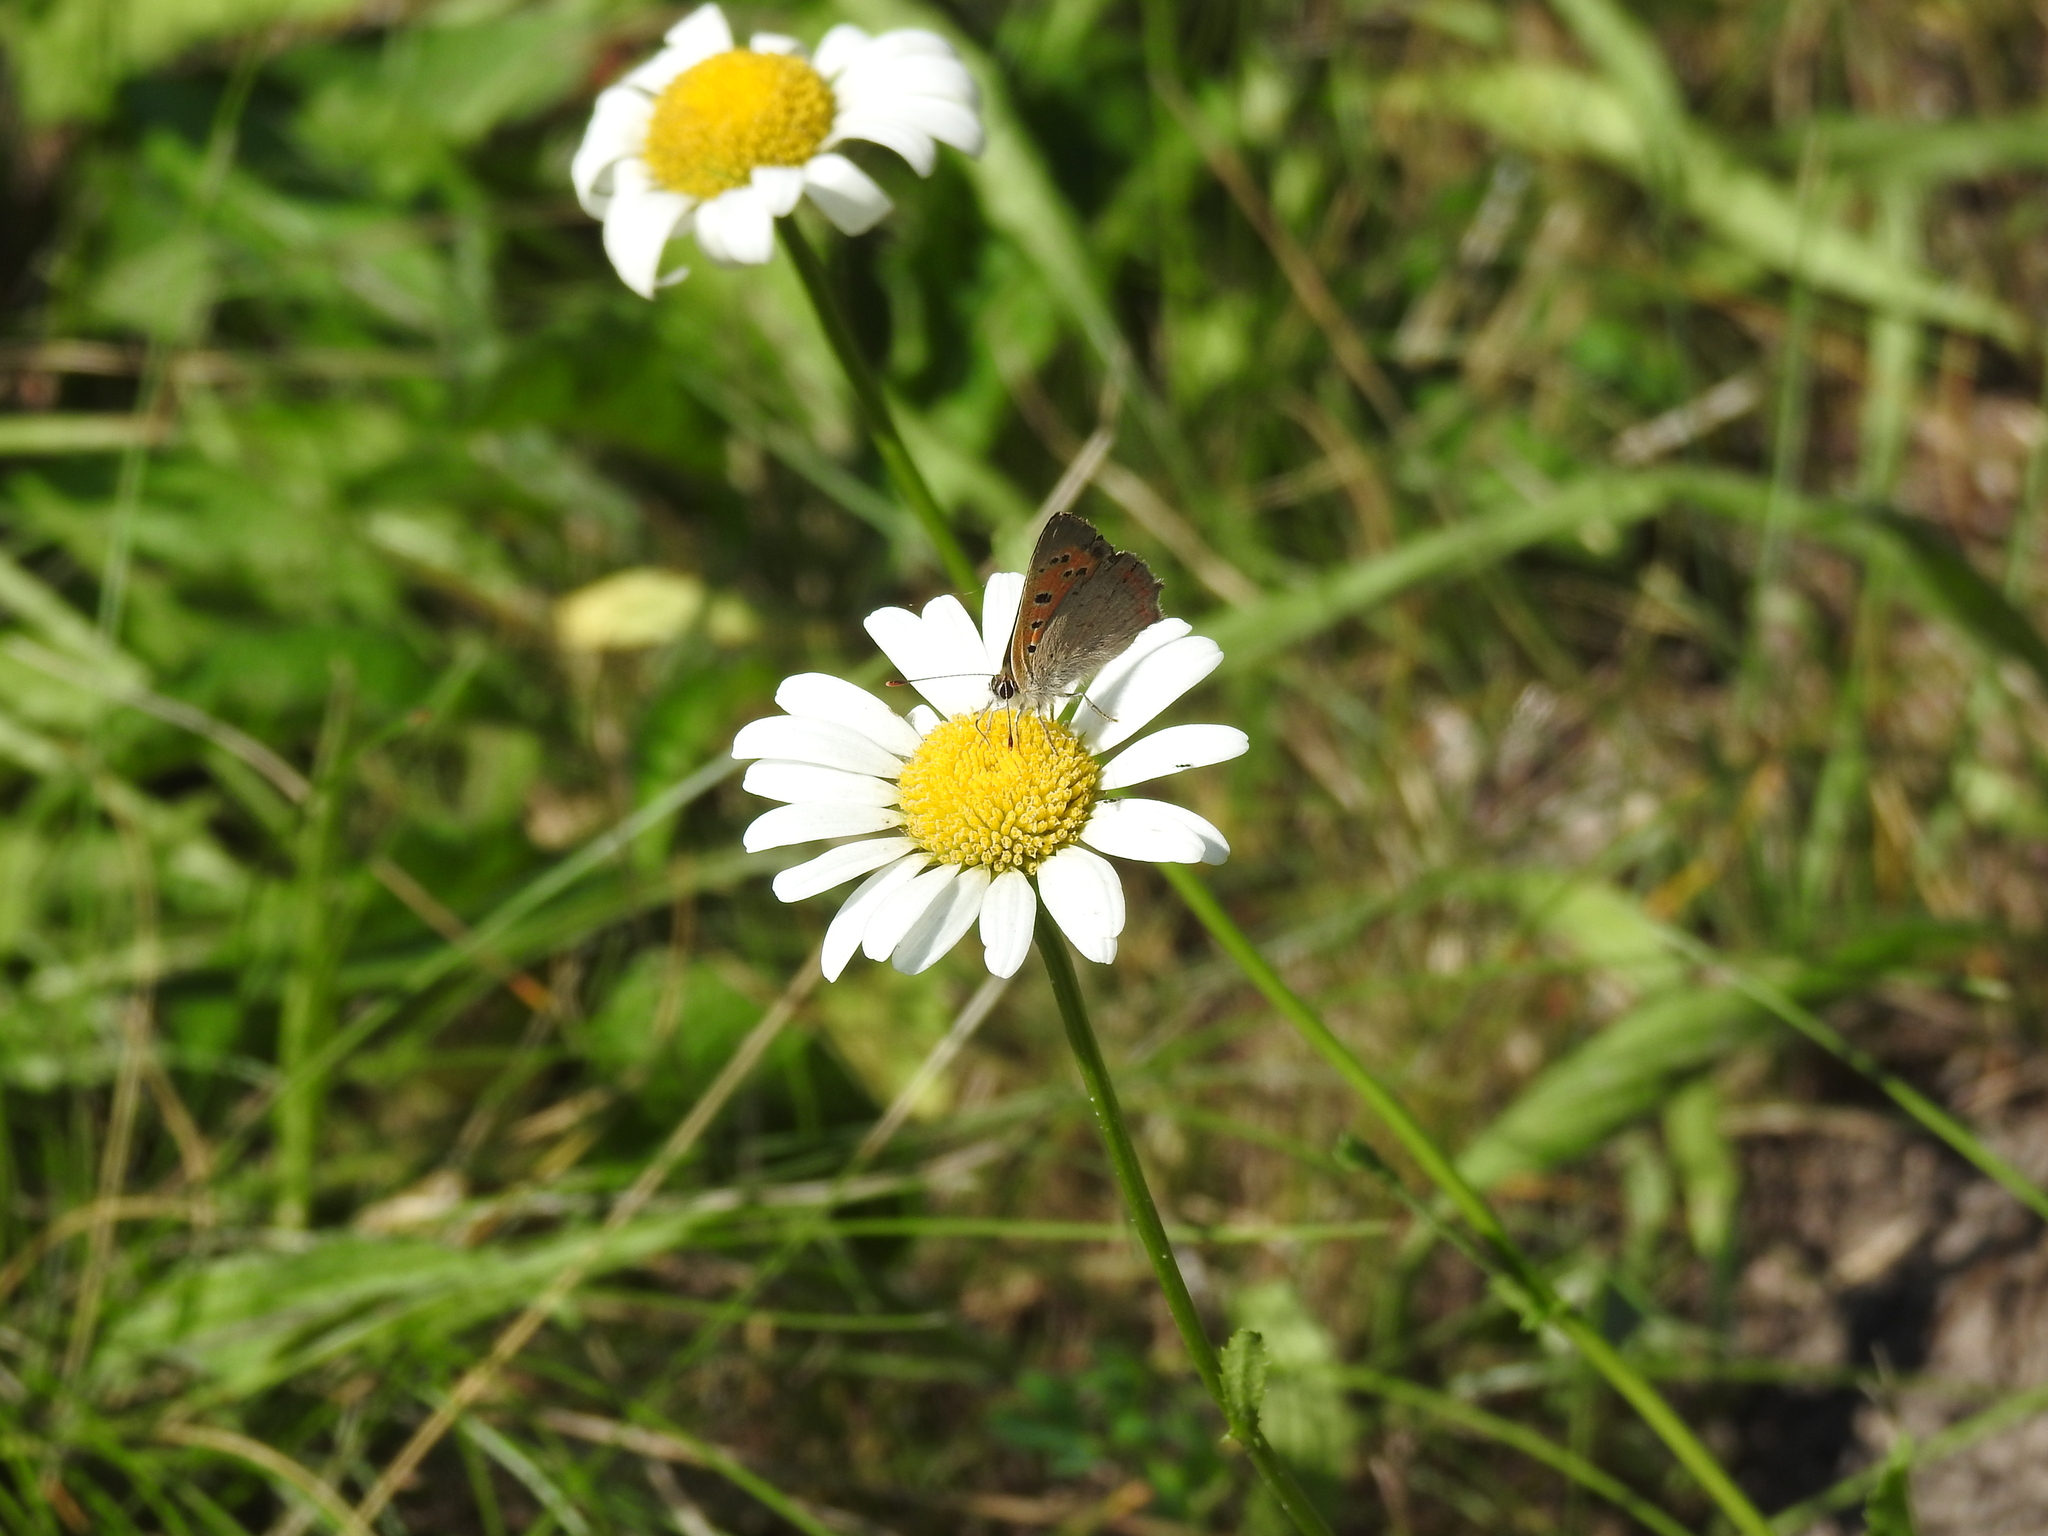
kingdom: Animalia
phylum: Arthropoda
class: Insecta
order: Lepidoptera
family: Lycaenidae
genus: Lycaena
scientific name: Lycaena phlaeas
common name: Small copper
